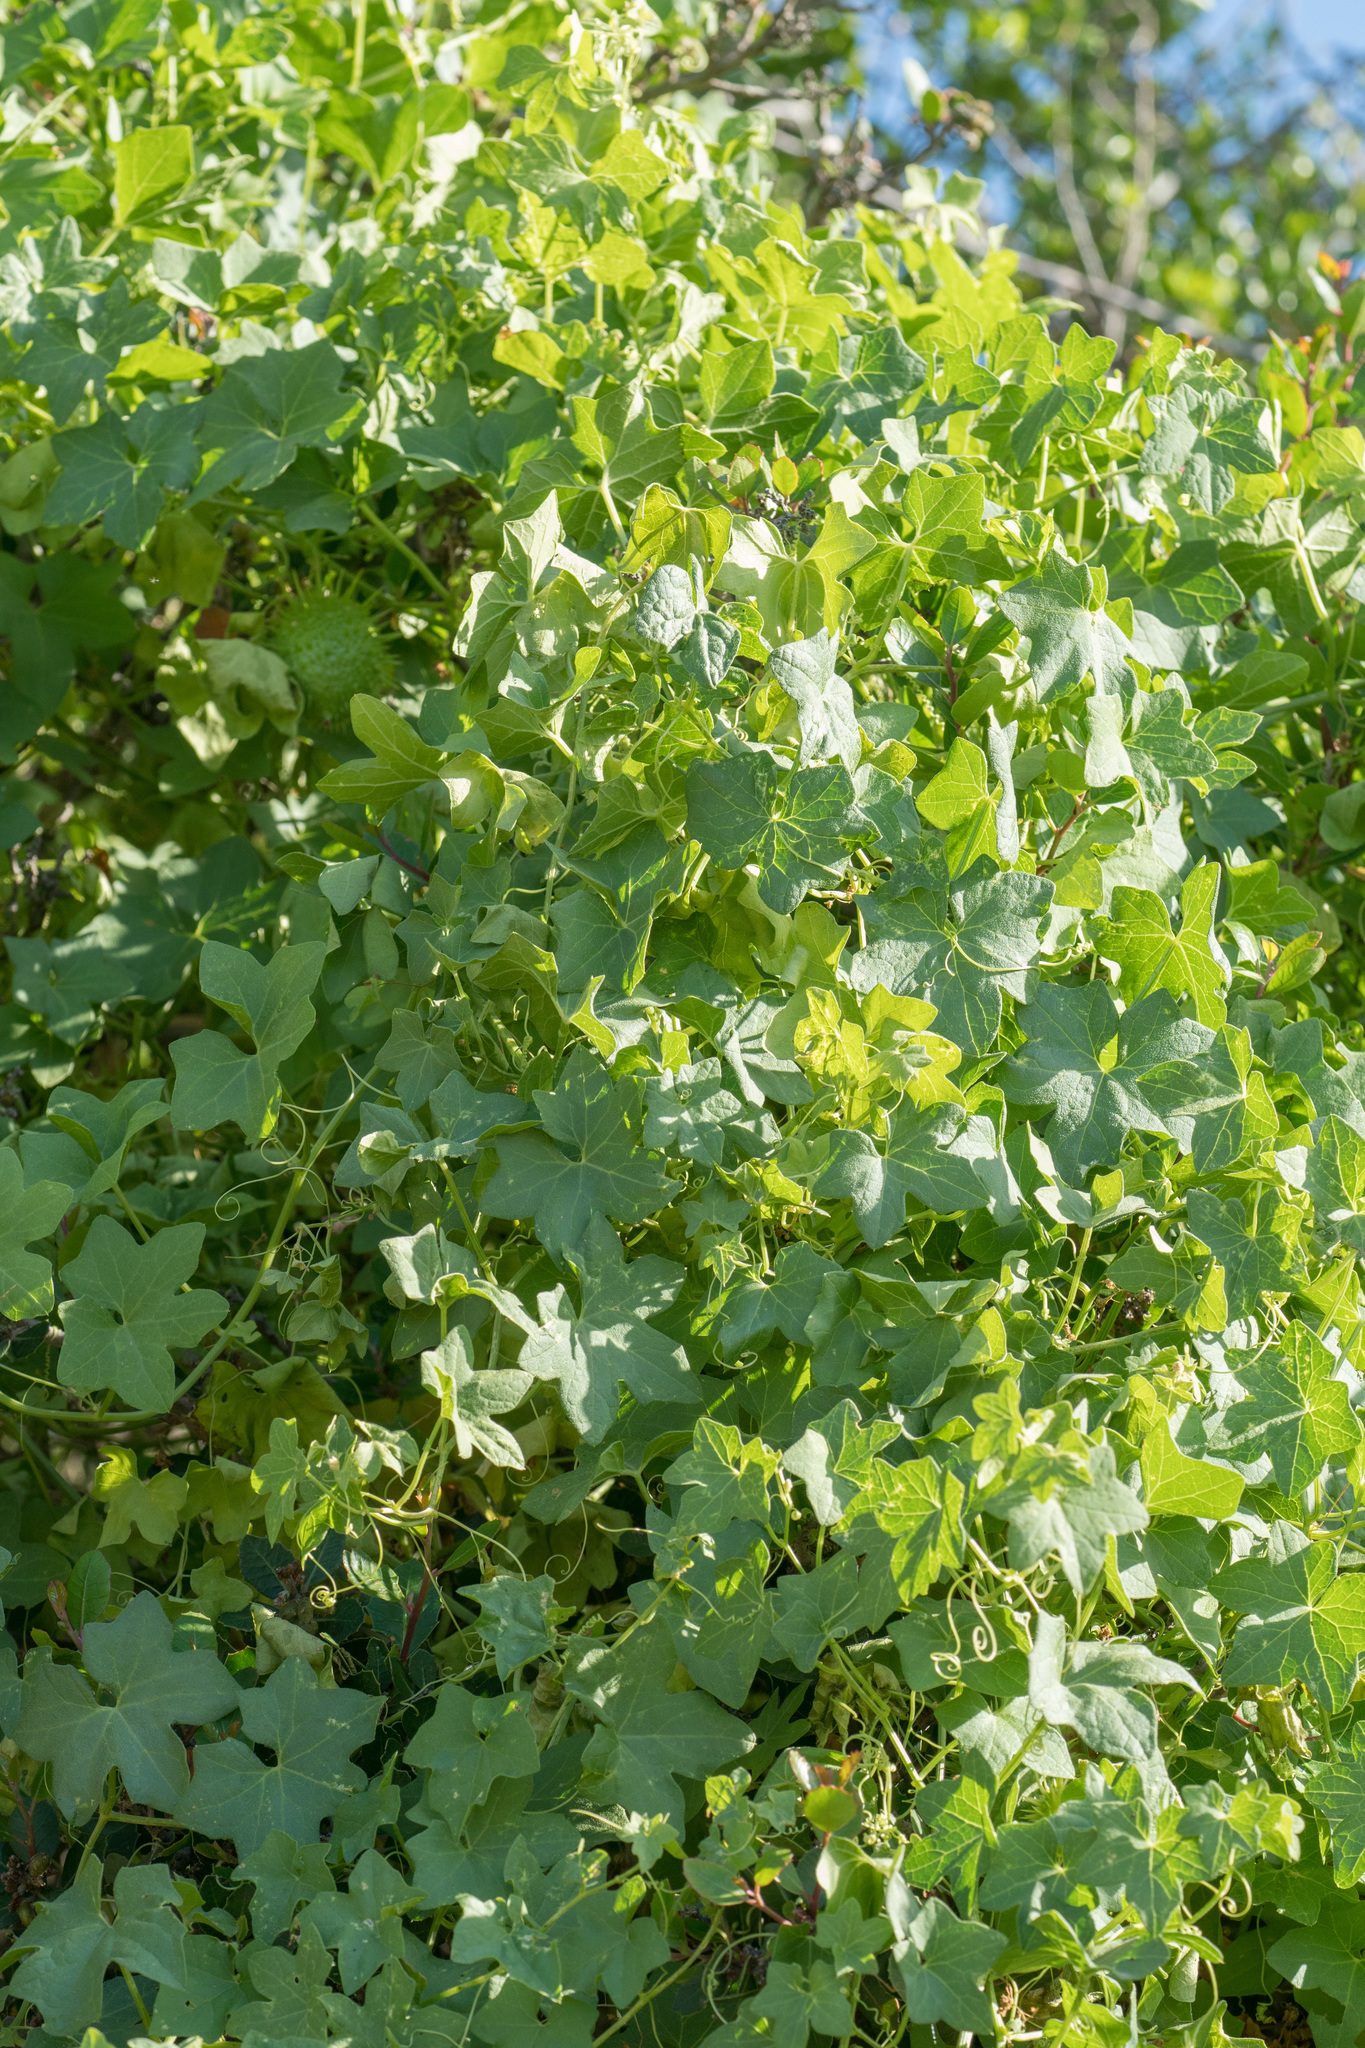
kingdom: Plantae
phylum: Tracheophyta
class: Magnoliopsida
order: Cucurbitales
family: Cucurbitaceae
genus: Marah
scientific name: Marah macrocarpa
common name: Cucamonga manroot
